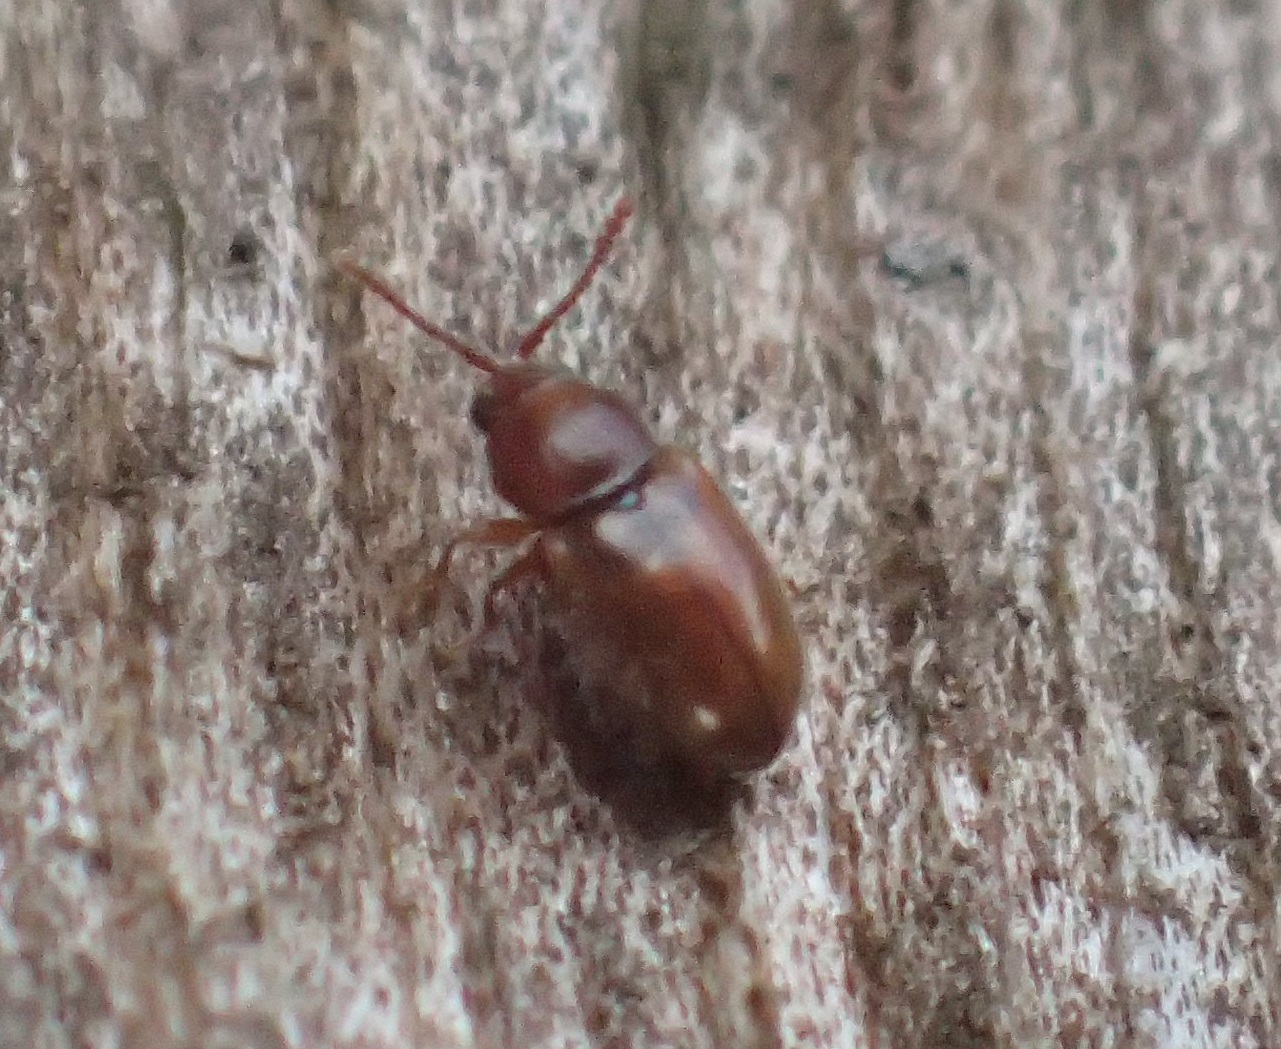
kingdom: Animalia
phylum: Arthropoda
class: Insecta
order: Coleoptera
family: Cryptophagidae
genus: Atomaria
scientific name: Atomaria lewisi
